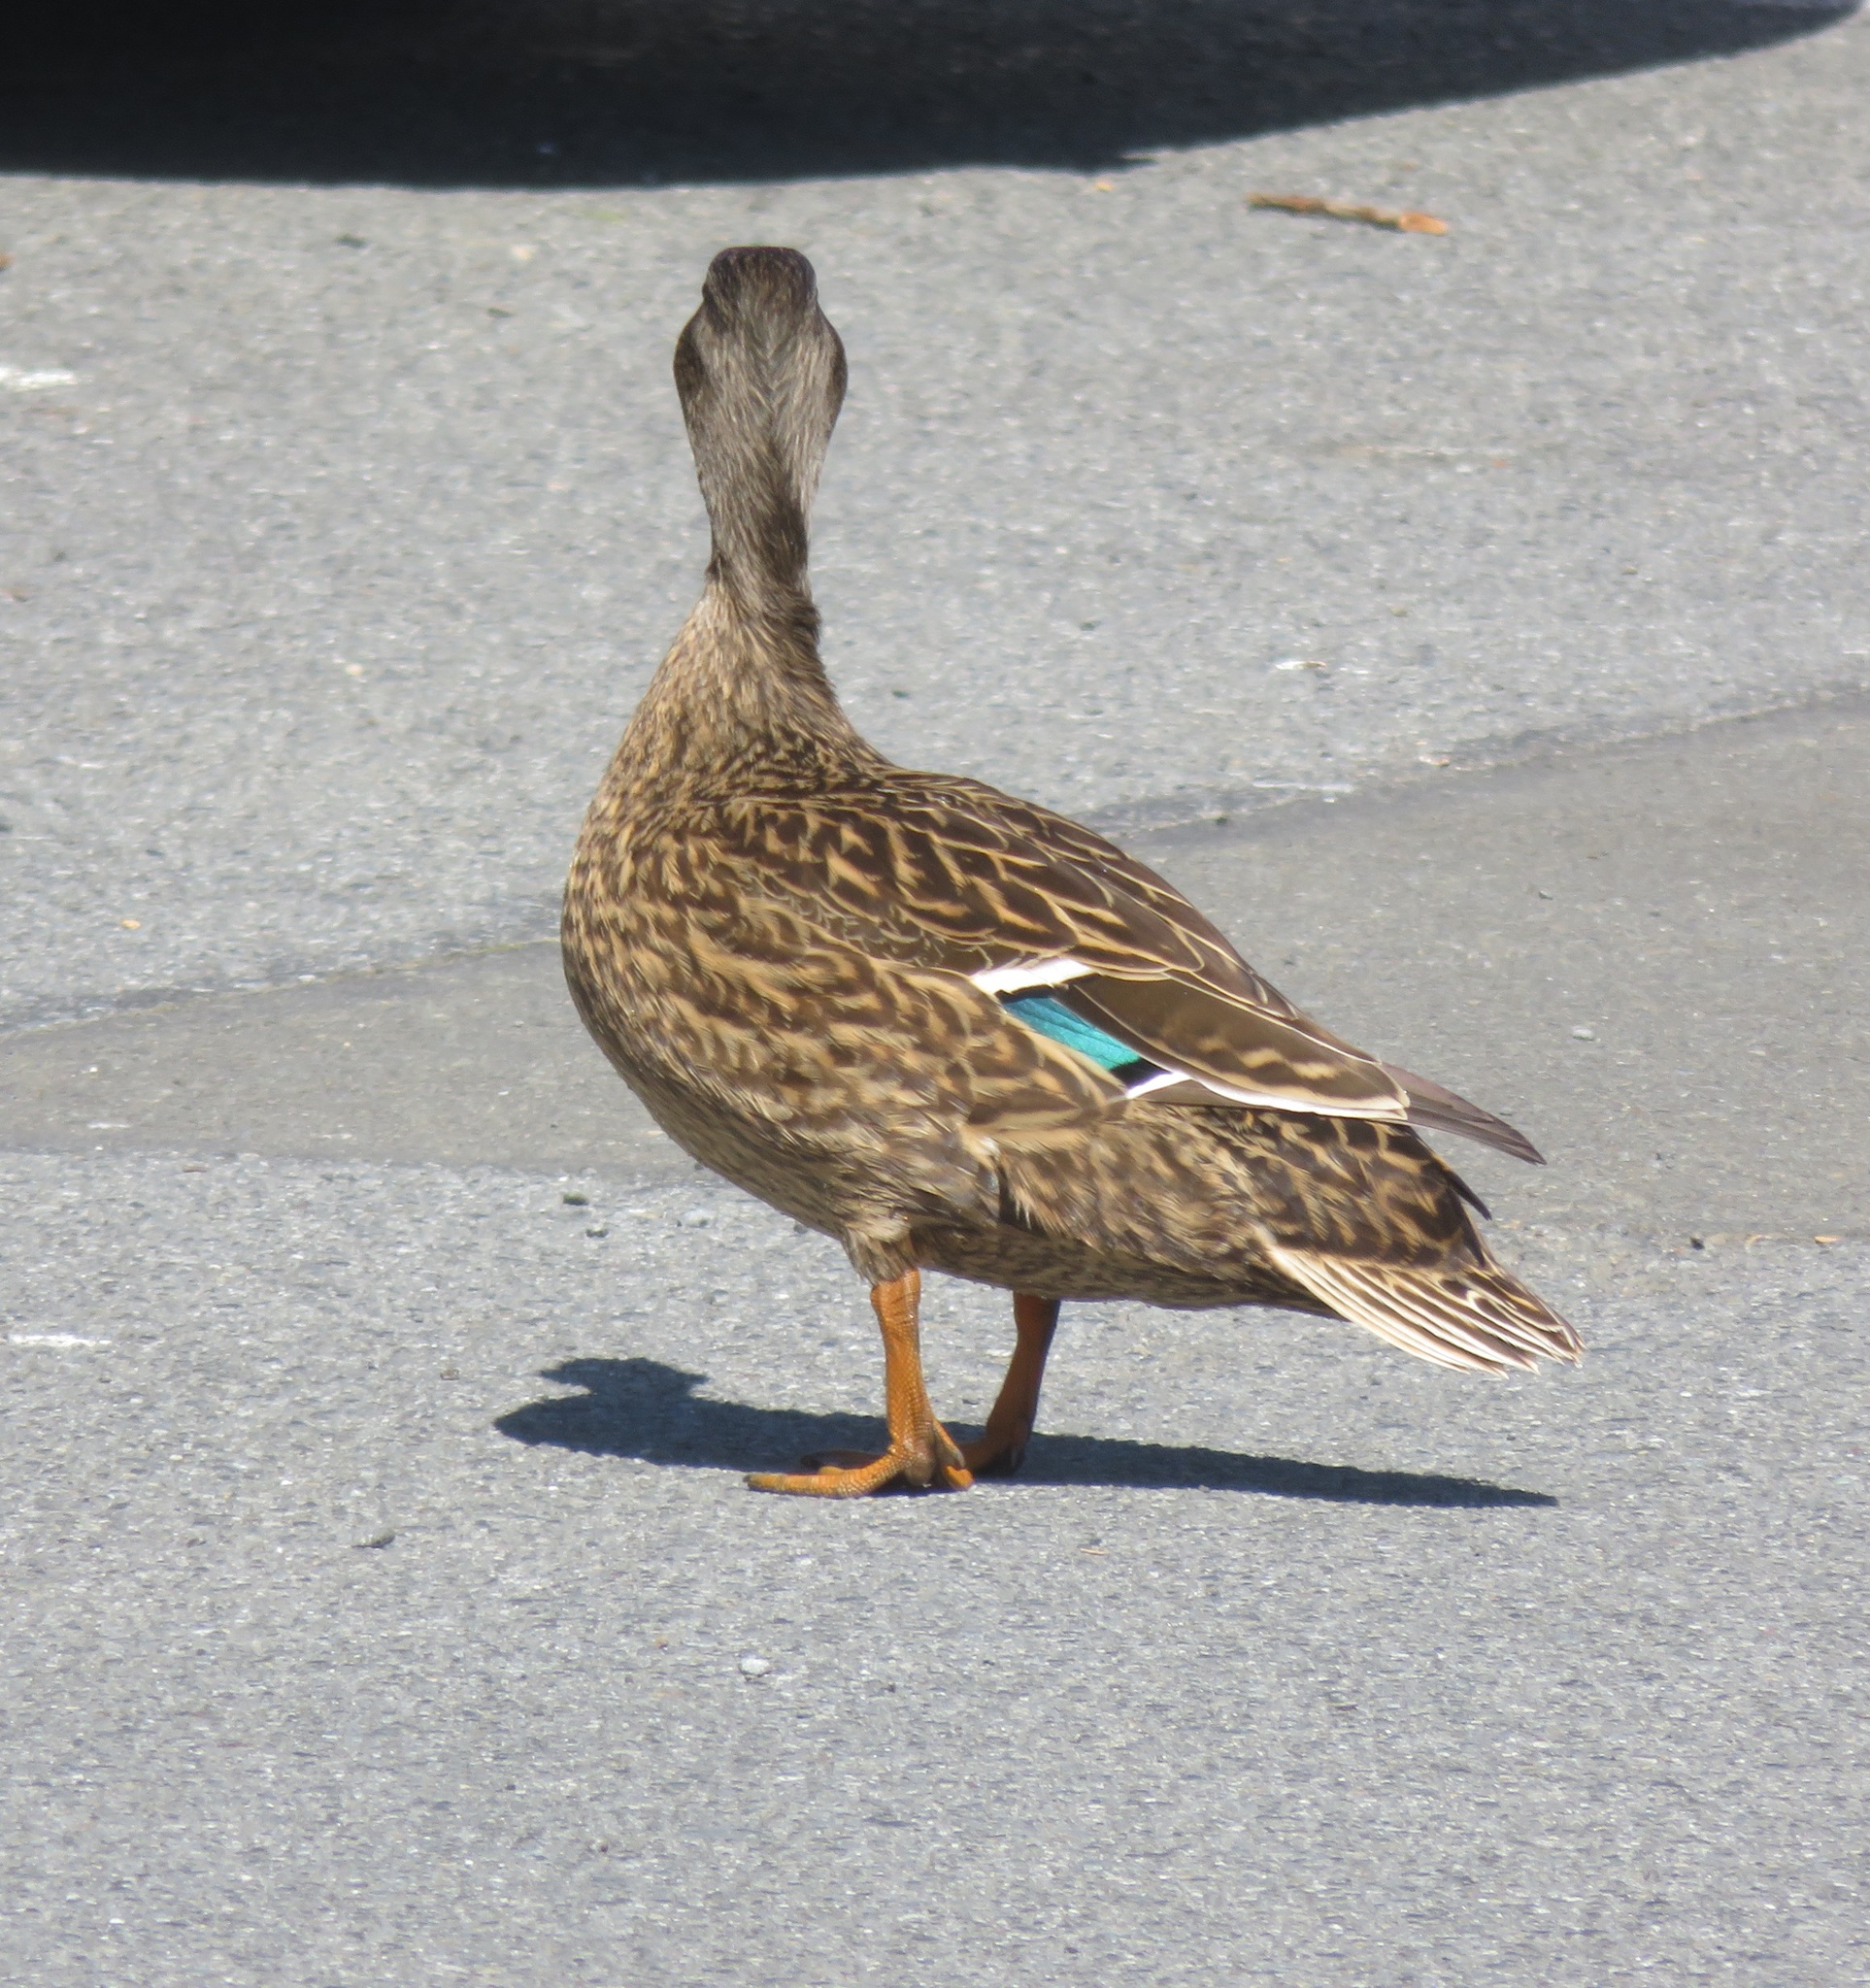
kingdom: Animalia
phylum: Chordata
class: Aves
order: Anseriformes
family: Anatidae
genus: Anas
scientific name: Anas
